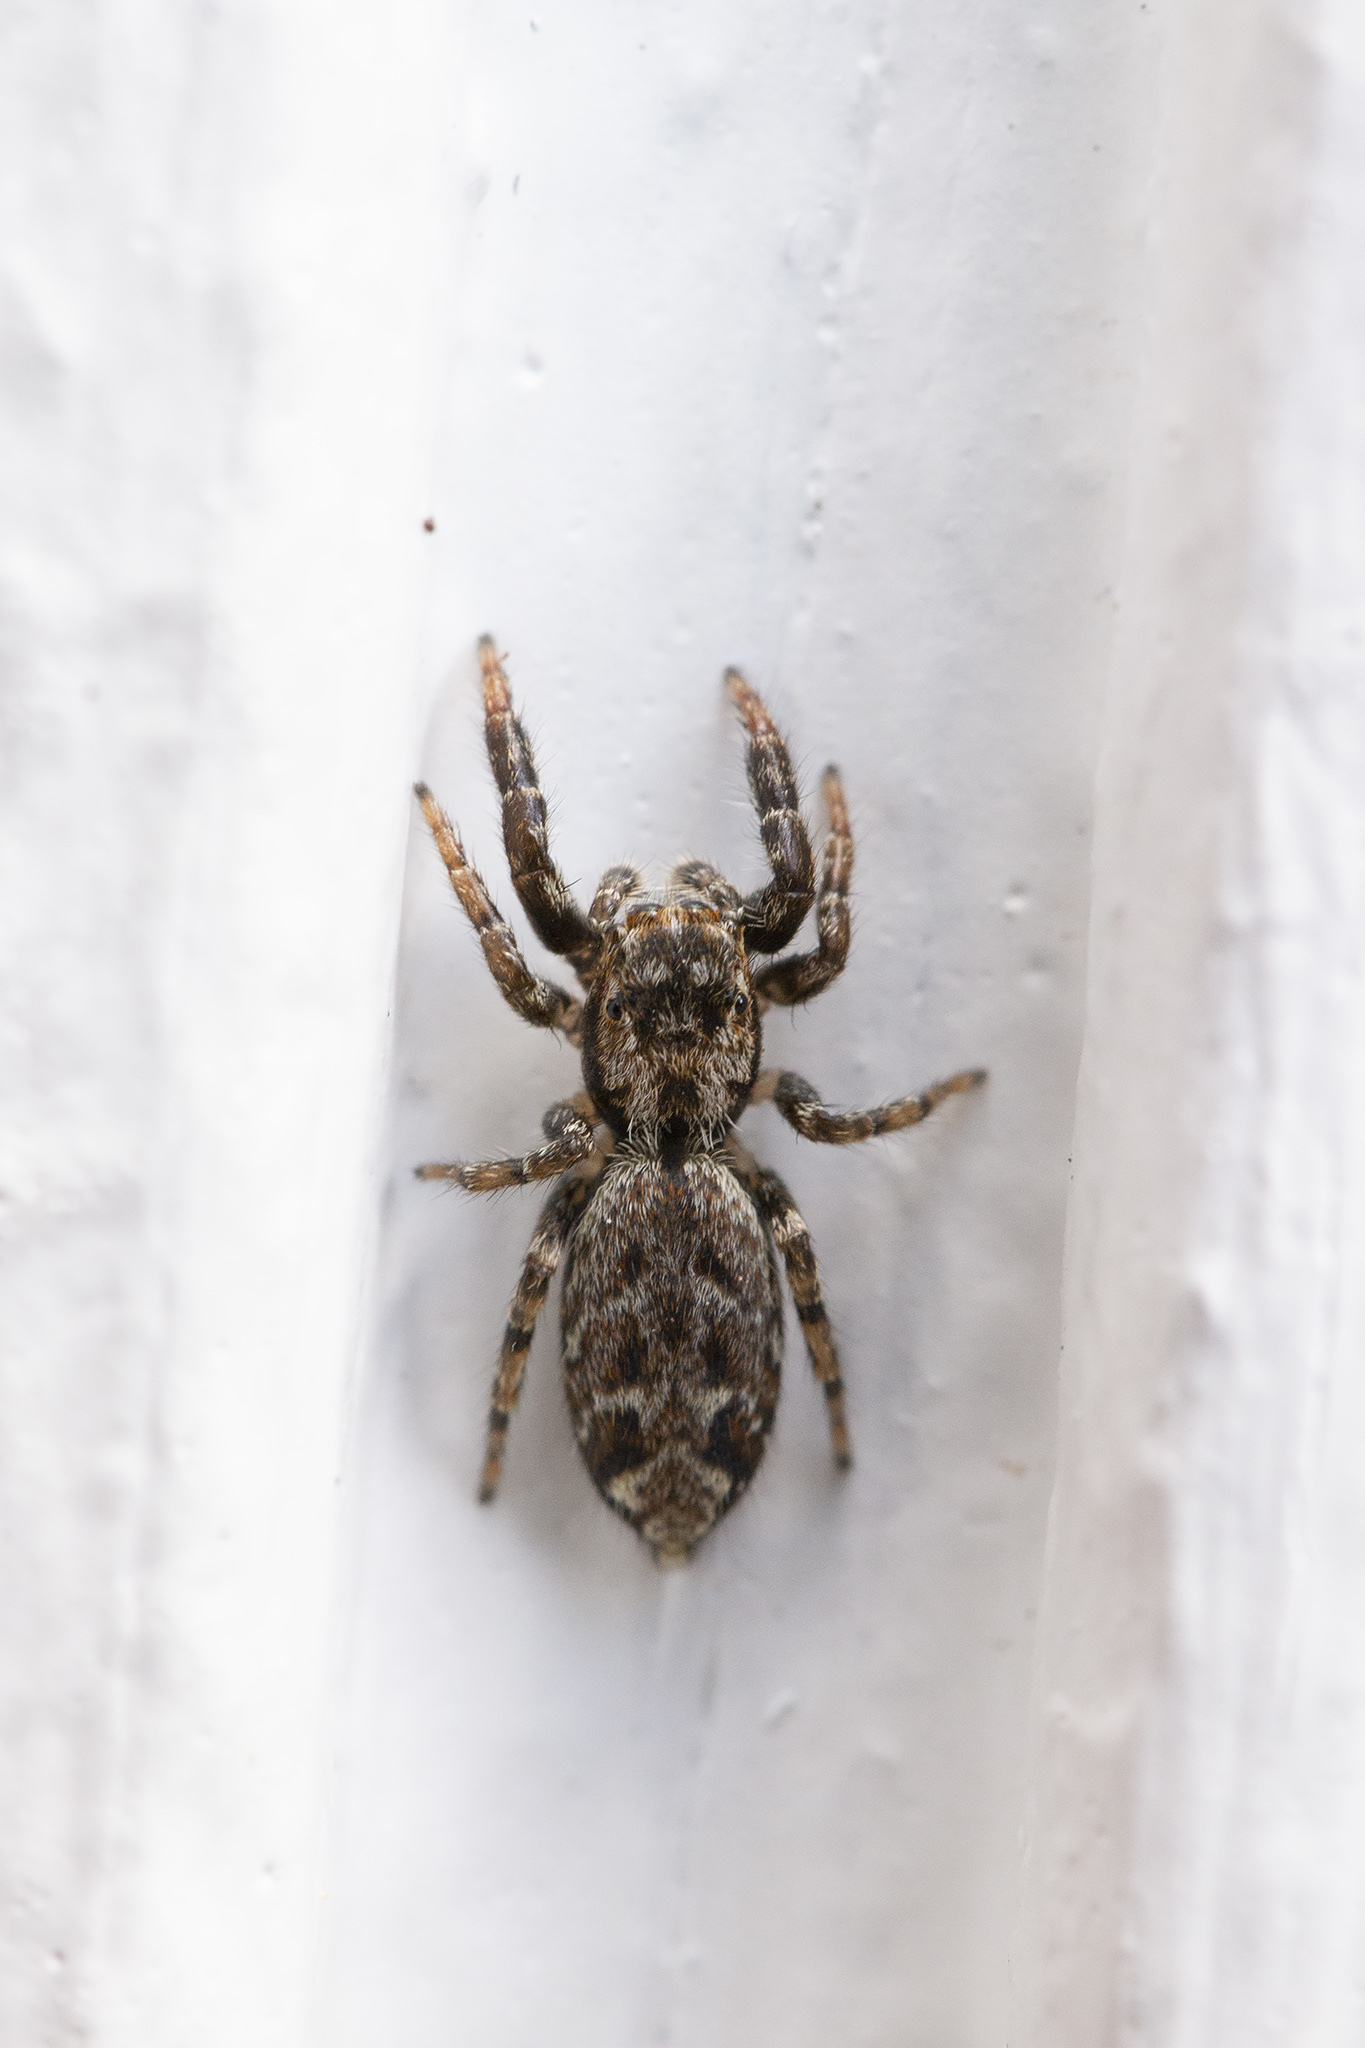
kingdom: Animalia
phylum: Arthropoda
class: Arachnida
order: Araneae
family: Salticidae
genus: Marpissa
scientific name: Marpissa muscosa
